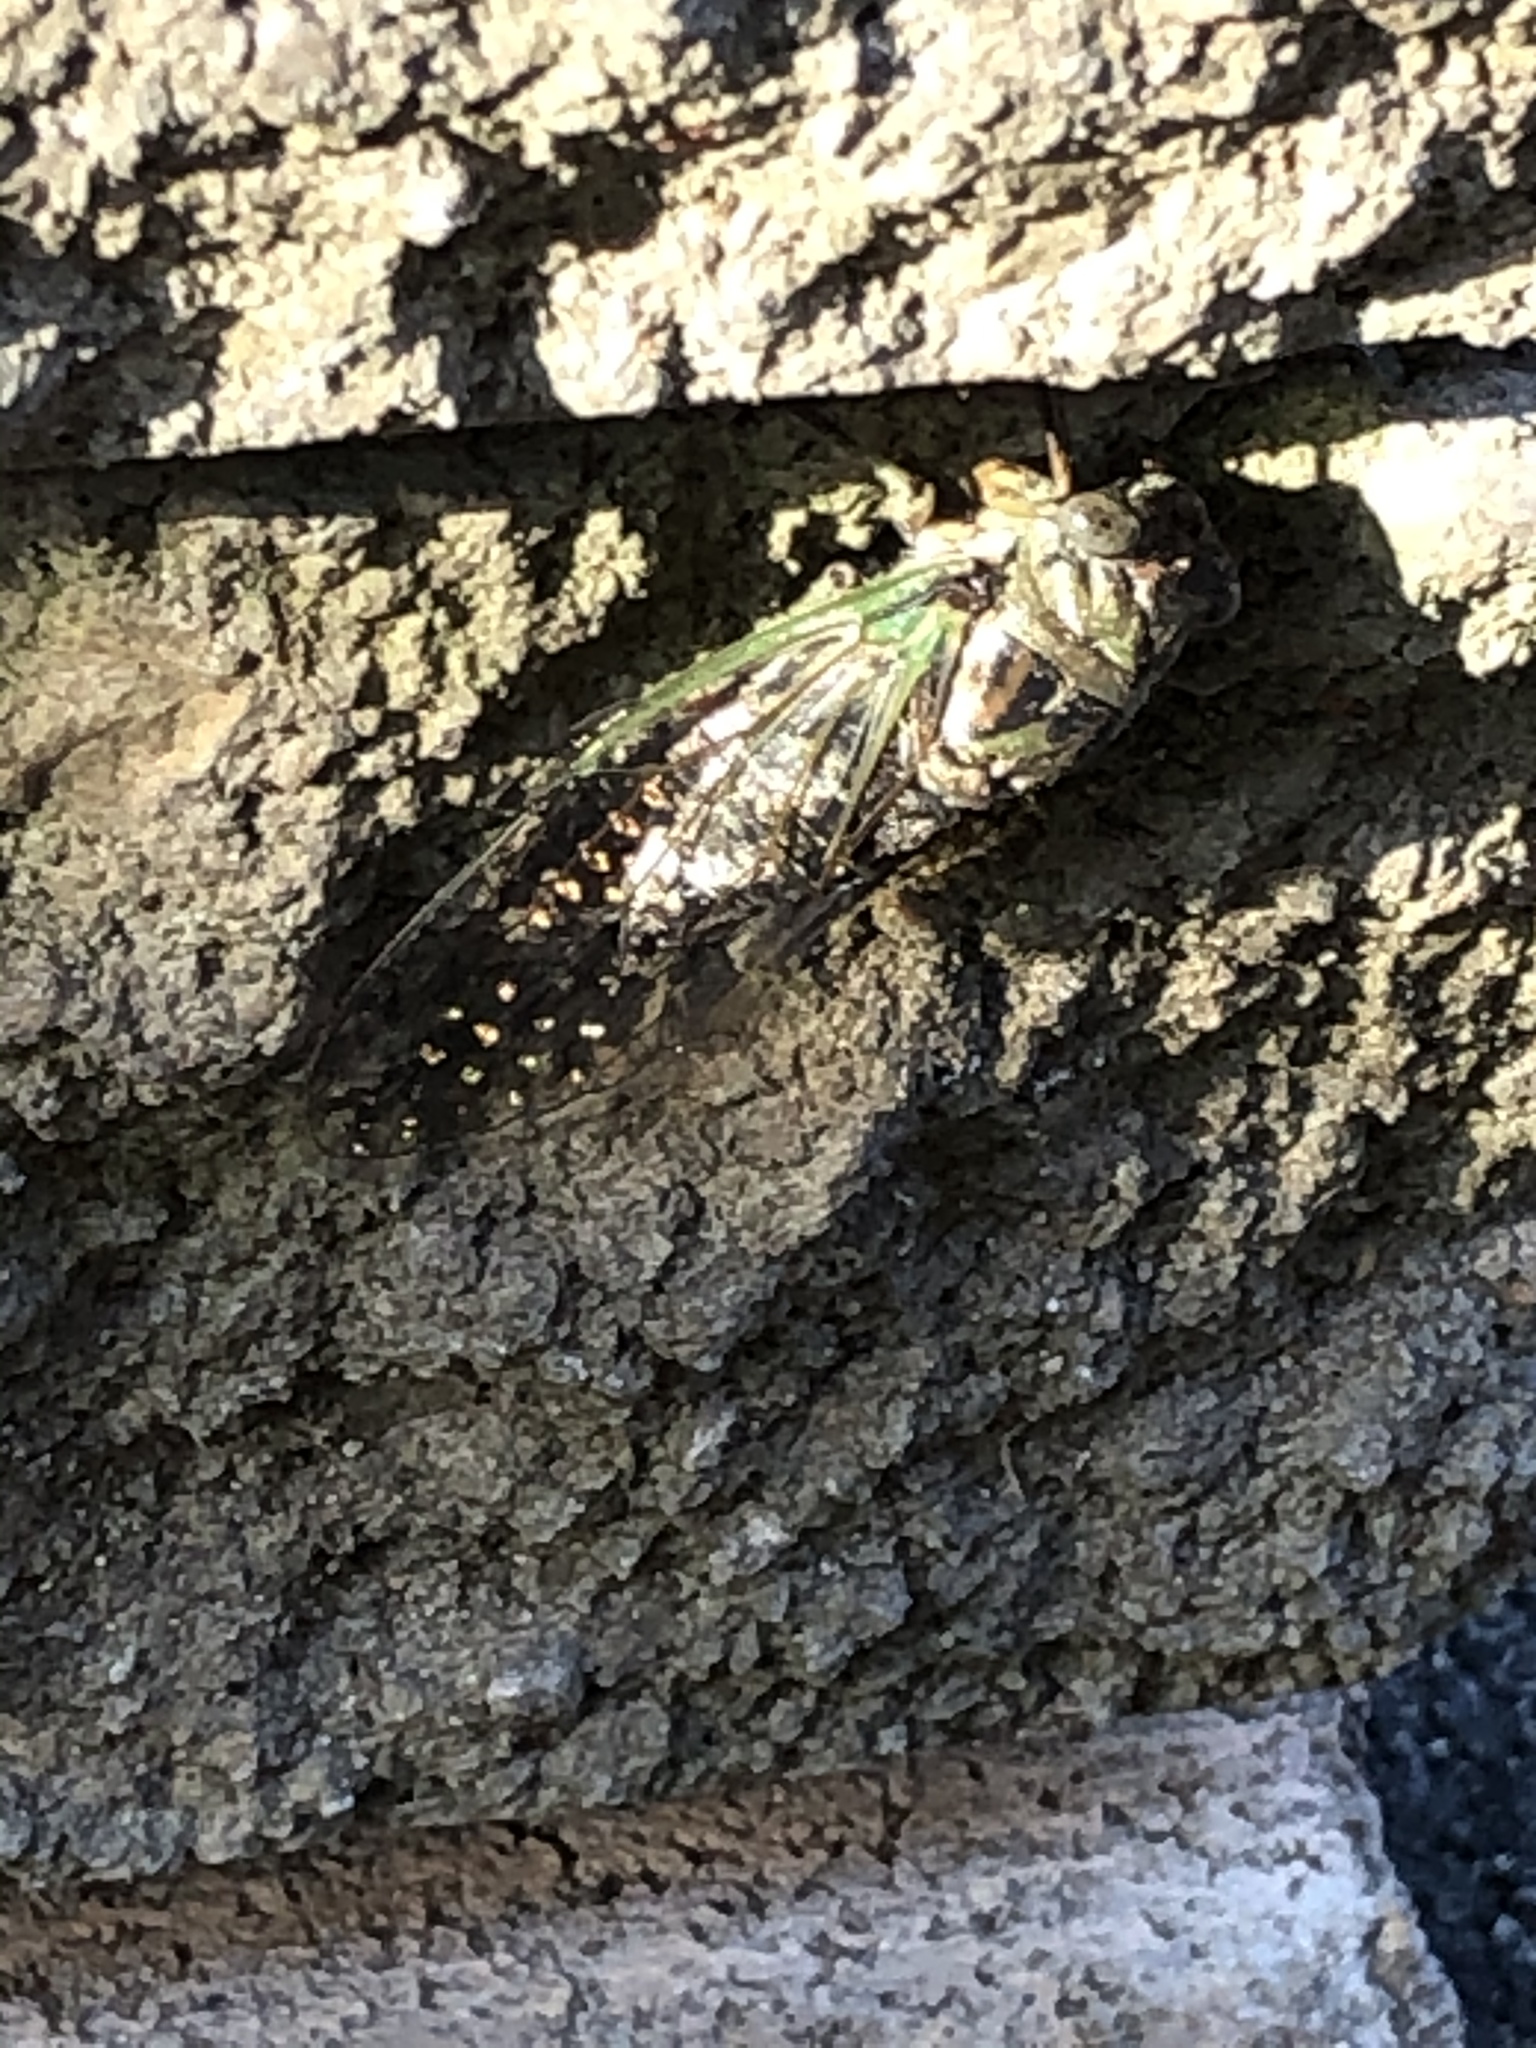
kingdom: Animalia
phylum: Arthropoda
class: Insecta
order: Hemiptera
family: Cicadidae
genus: Neotibicen
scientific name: Neotibicen canicularis
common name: God-day cicada
